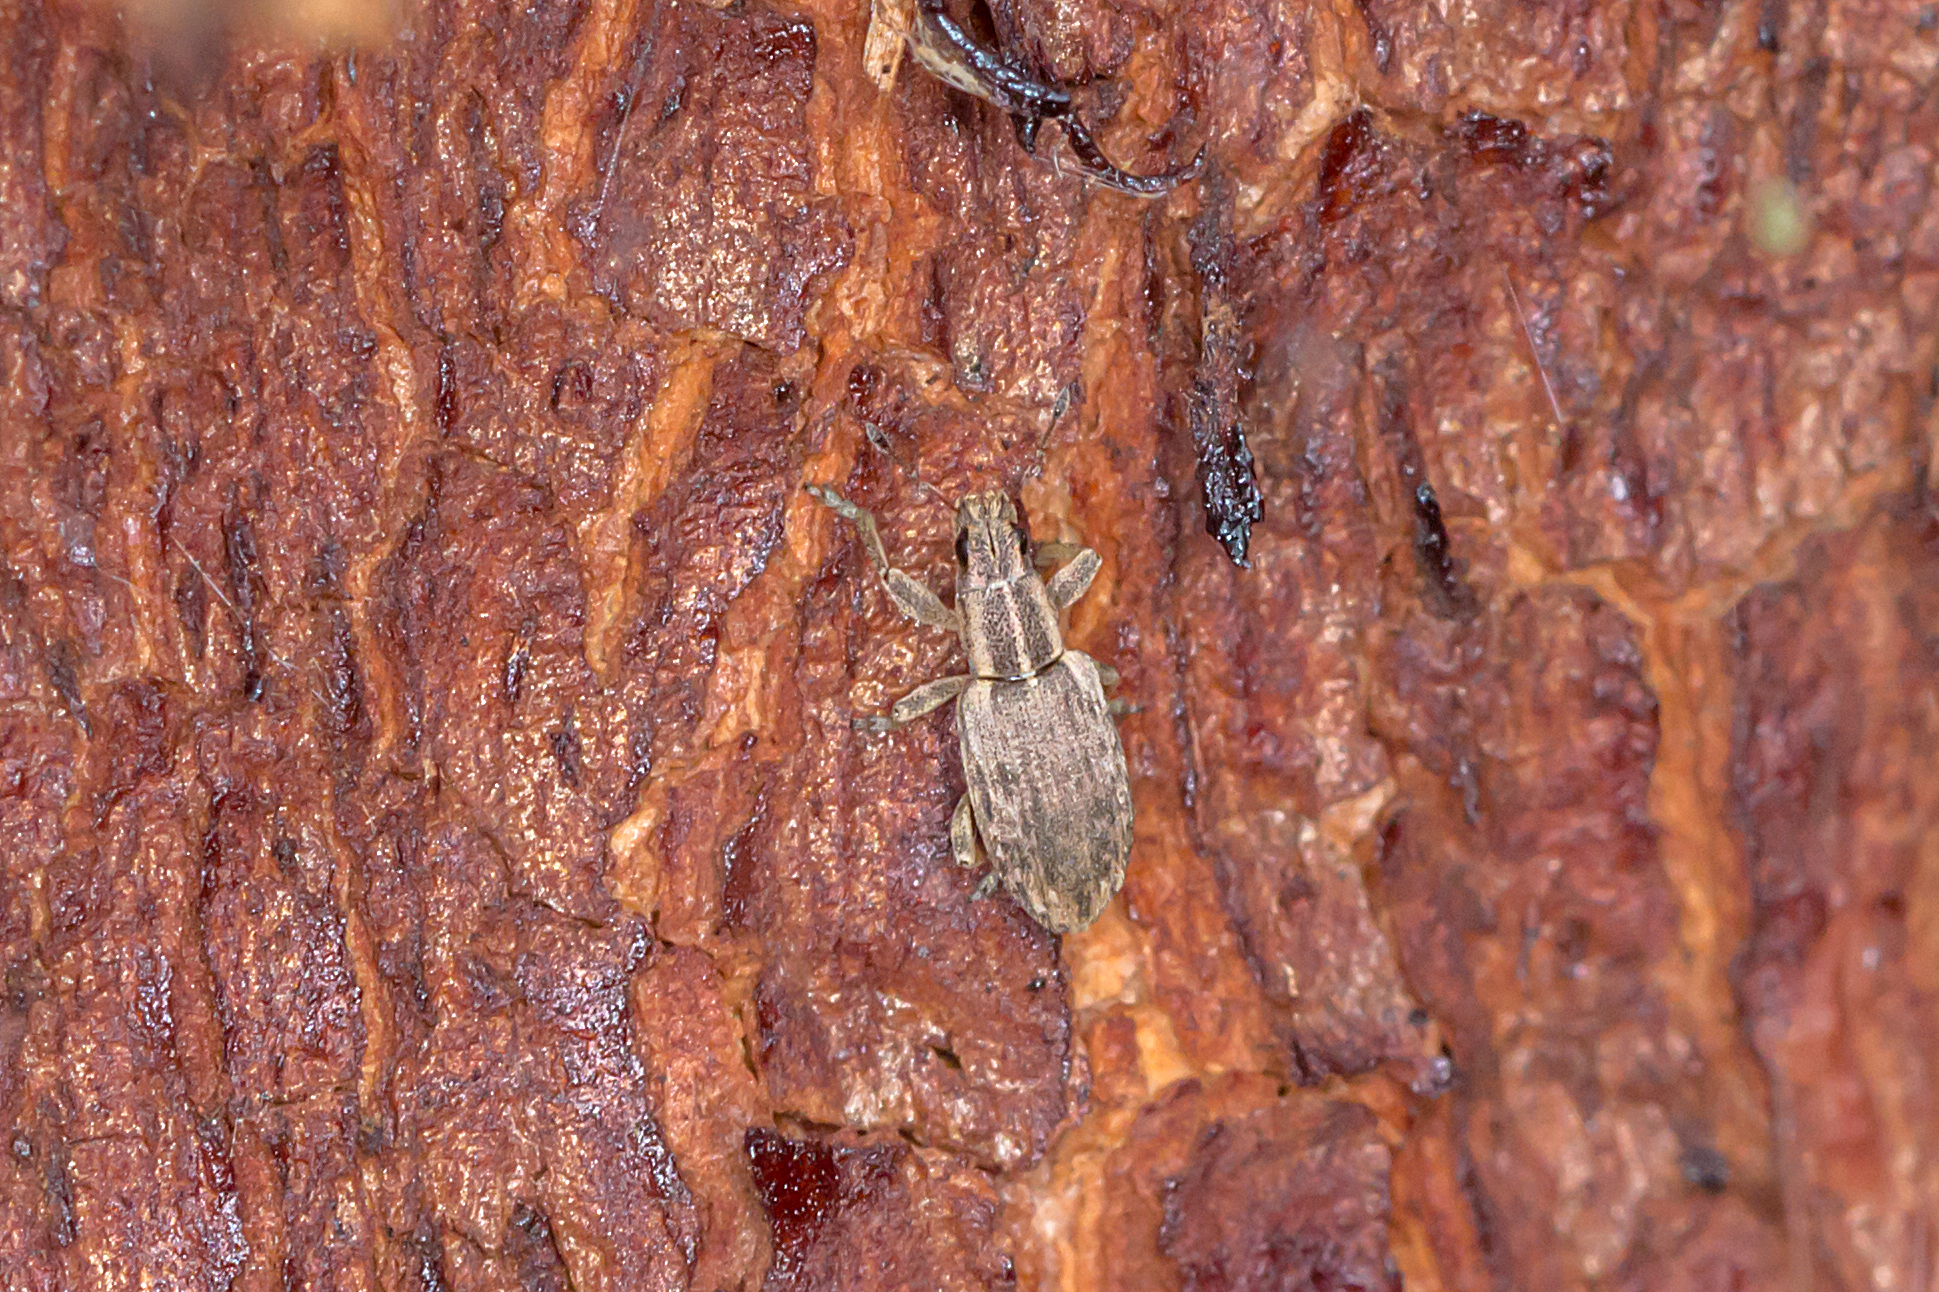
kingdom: Animalia
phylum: Arthropoda
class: Insecta
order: Coleoptera
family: Curculionidae
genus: Sitona
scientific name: Sitona discoideus
